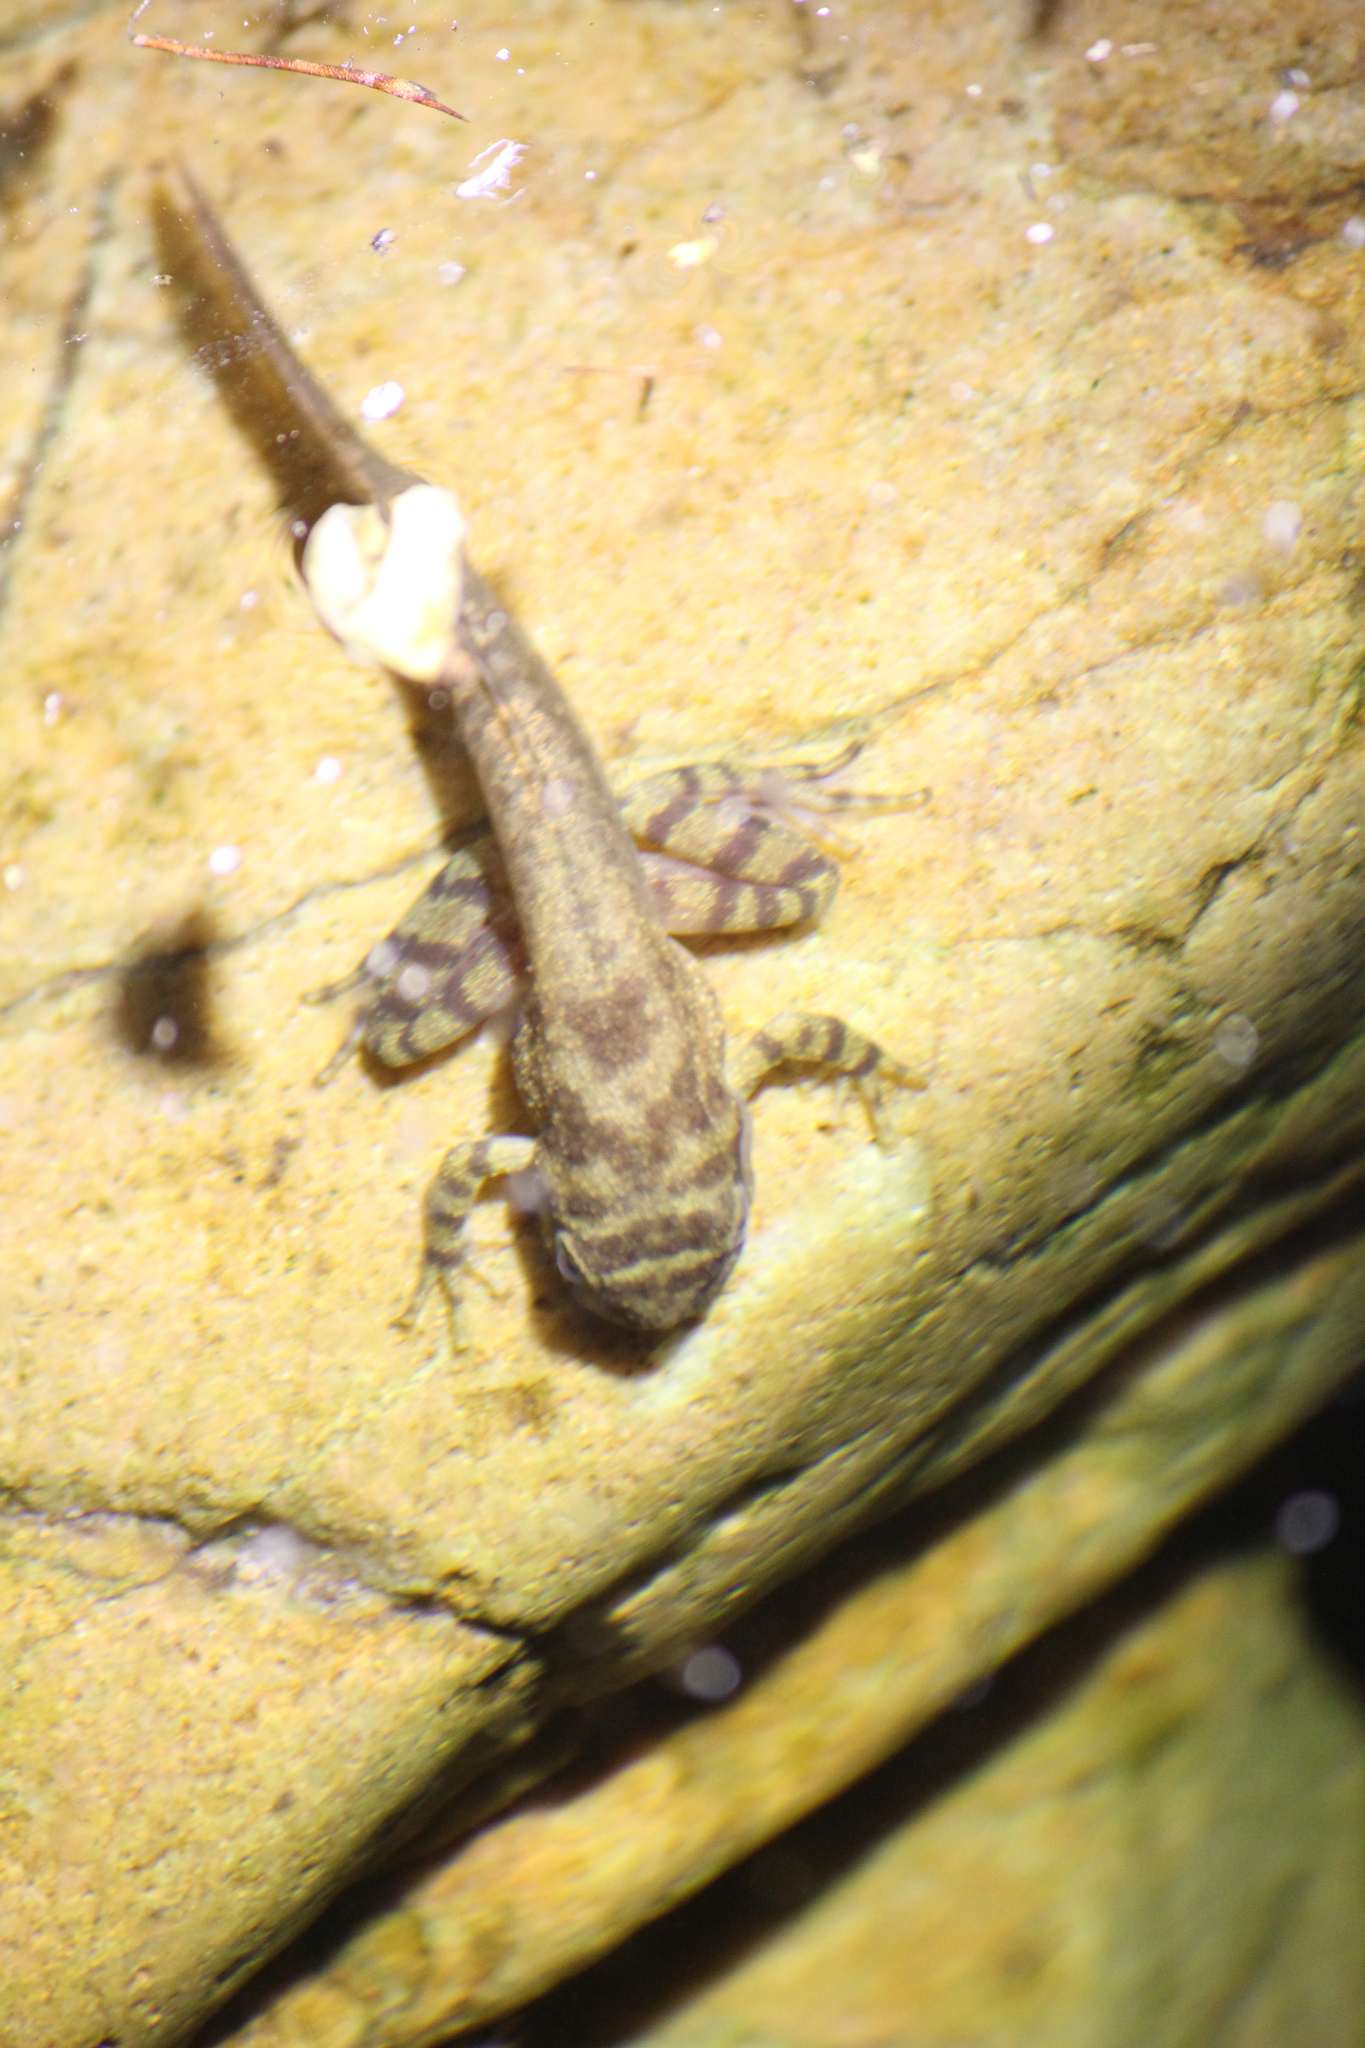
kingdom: Animalia
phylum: Chordata
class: Amphibia
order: Anura
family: Heleophrynidae
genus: Heleophryne
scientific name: Heleophryne purcelli
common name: Purcell's ghost frog
